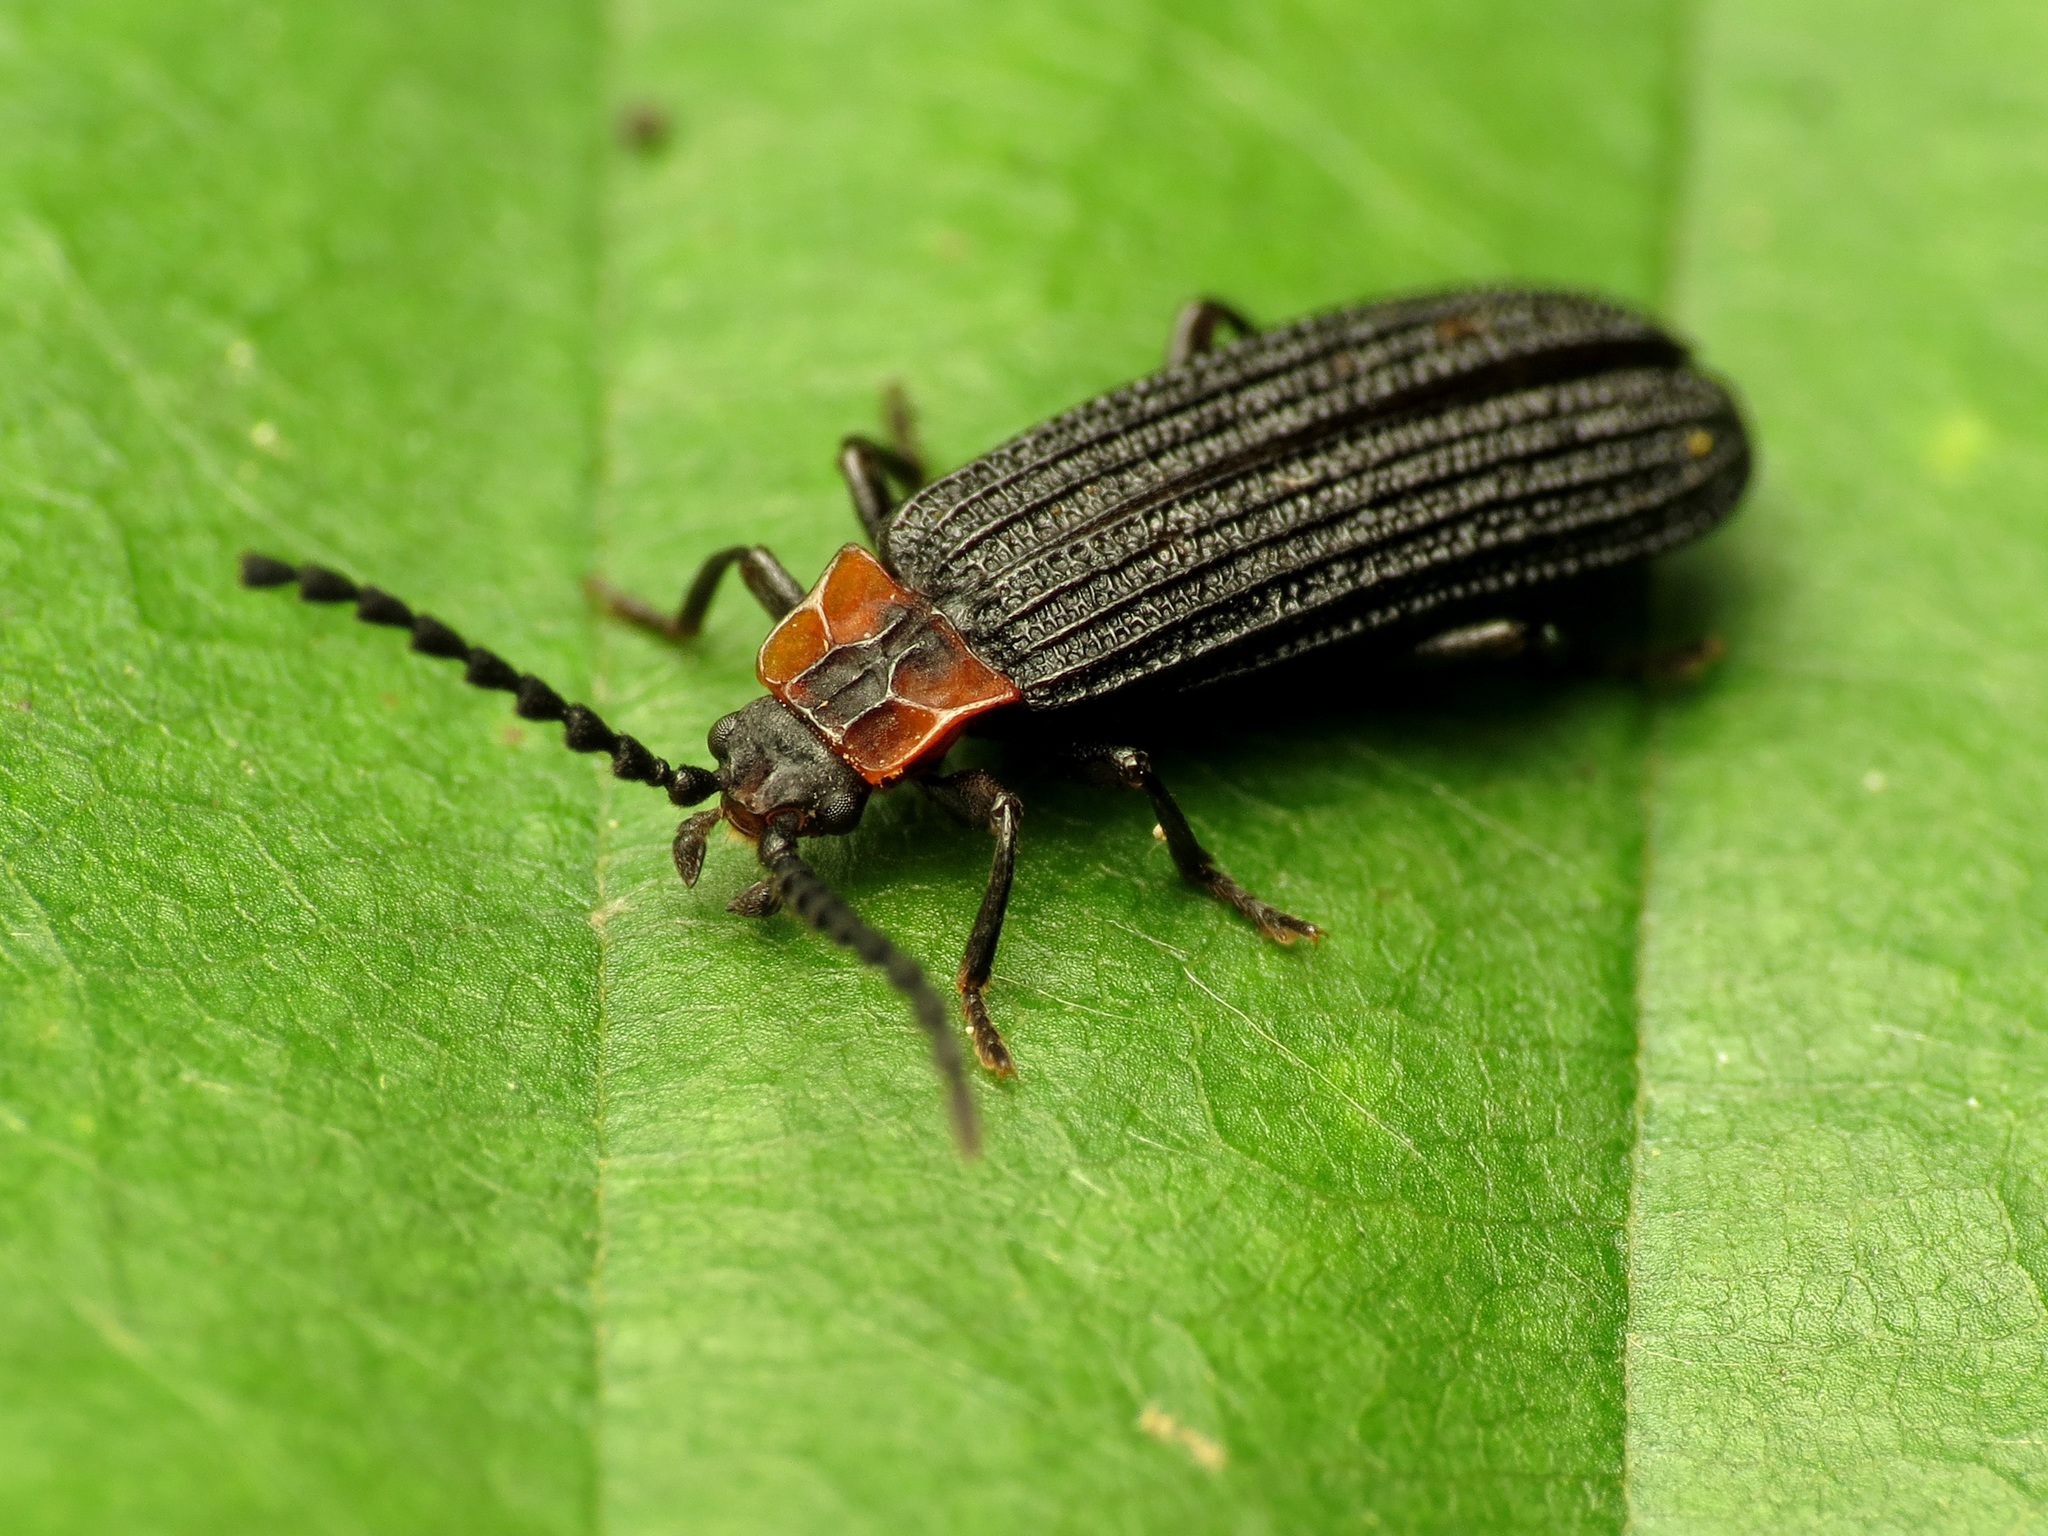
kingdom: Animalia
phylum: Arthropoda
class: Insecta
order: Coleoptera
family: Lycidae
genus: Erotides
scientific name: Erotides sculptilis
